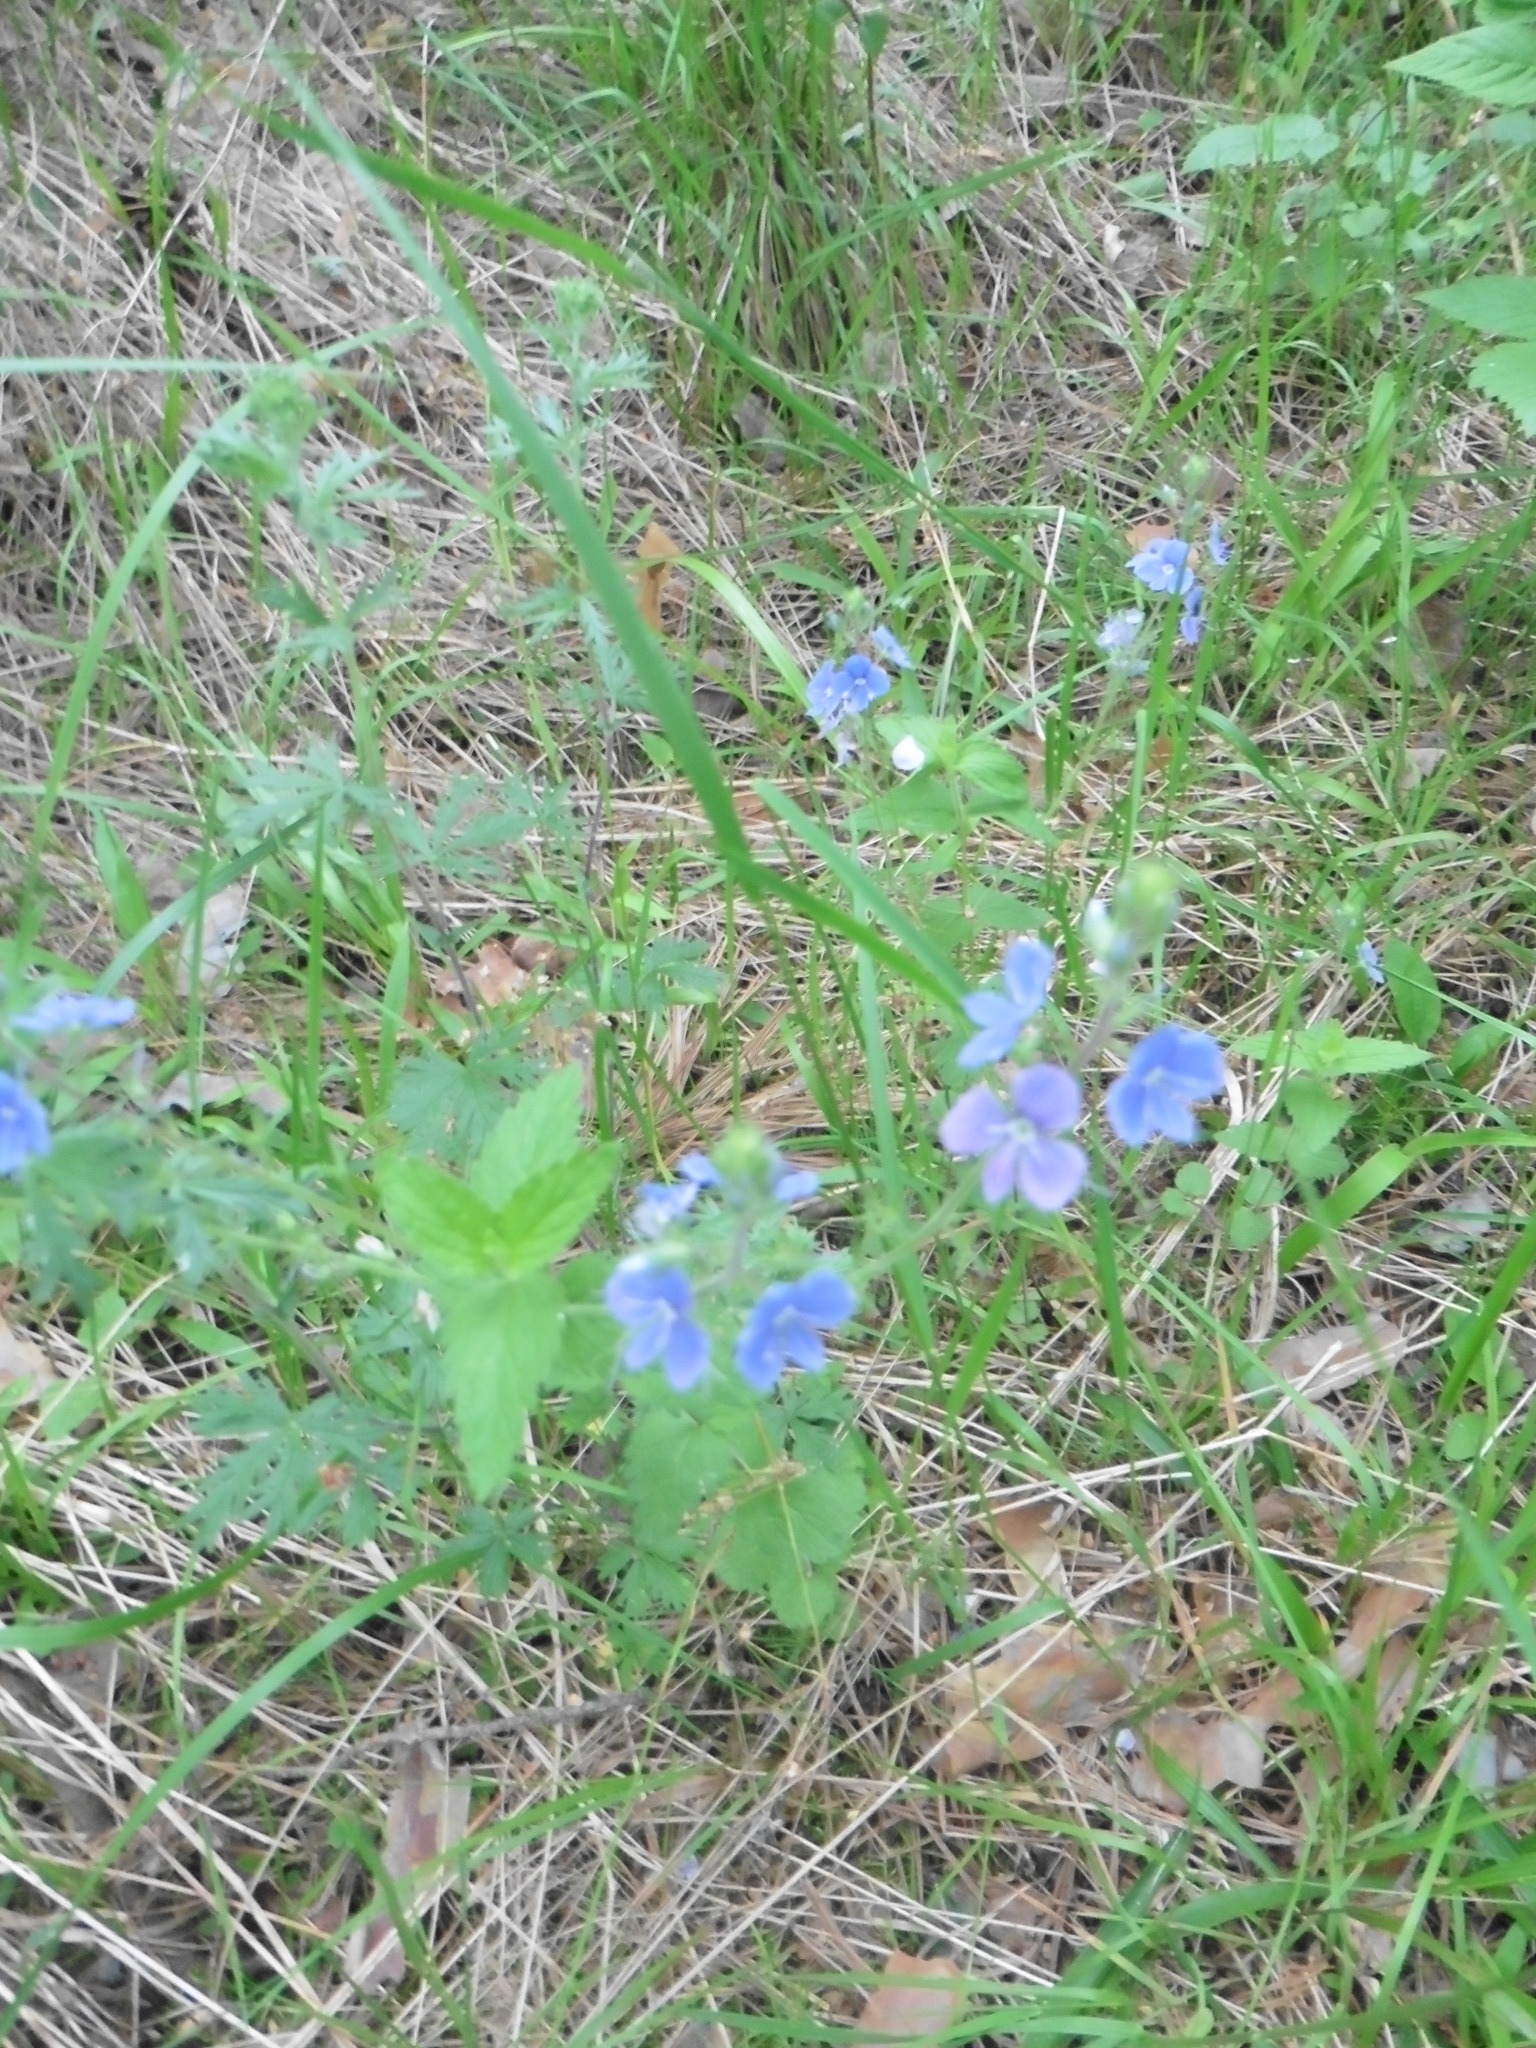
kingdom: Plantae
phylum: Tracheophyta
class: Magnoliopsida
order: Lamiales
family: Plantaginaceae
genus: Veronica
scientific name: Veronica chamaedrys
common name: Germander speedwell
